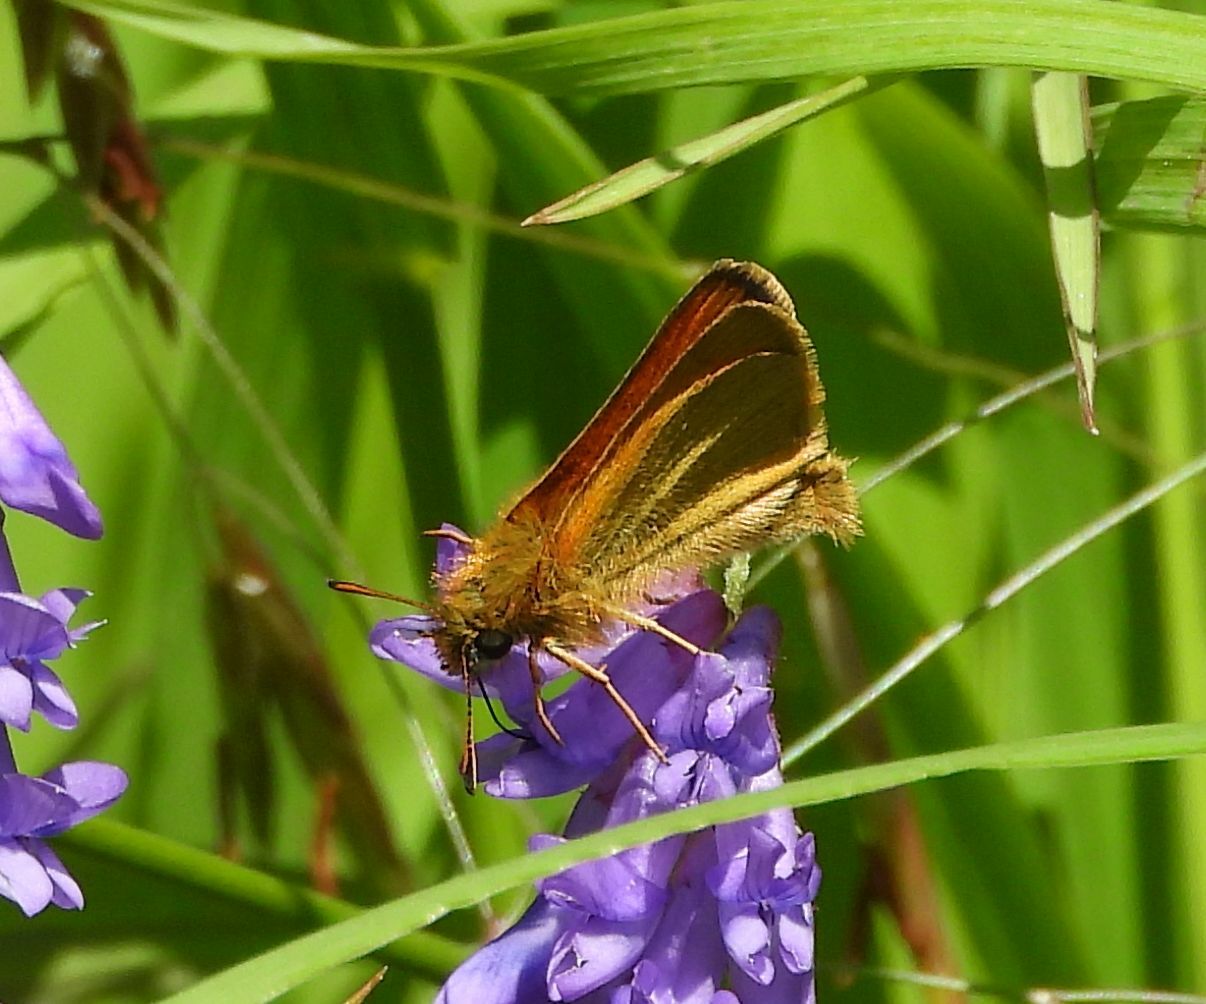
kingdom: Animalia
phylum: Arthropoda
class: Insecta
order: Lepidoptera
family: Hesperiidae
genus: Thymelicus
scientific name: Thymelicus lineola
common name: Essex skipper
